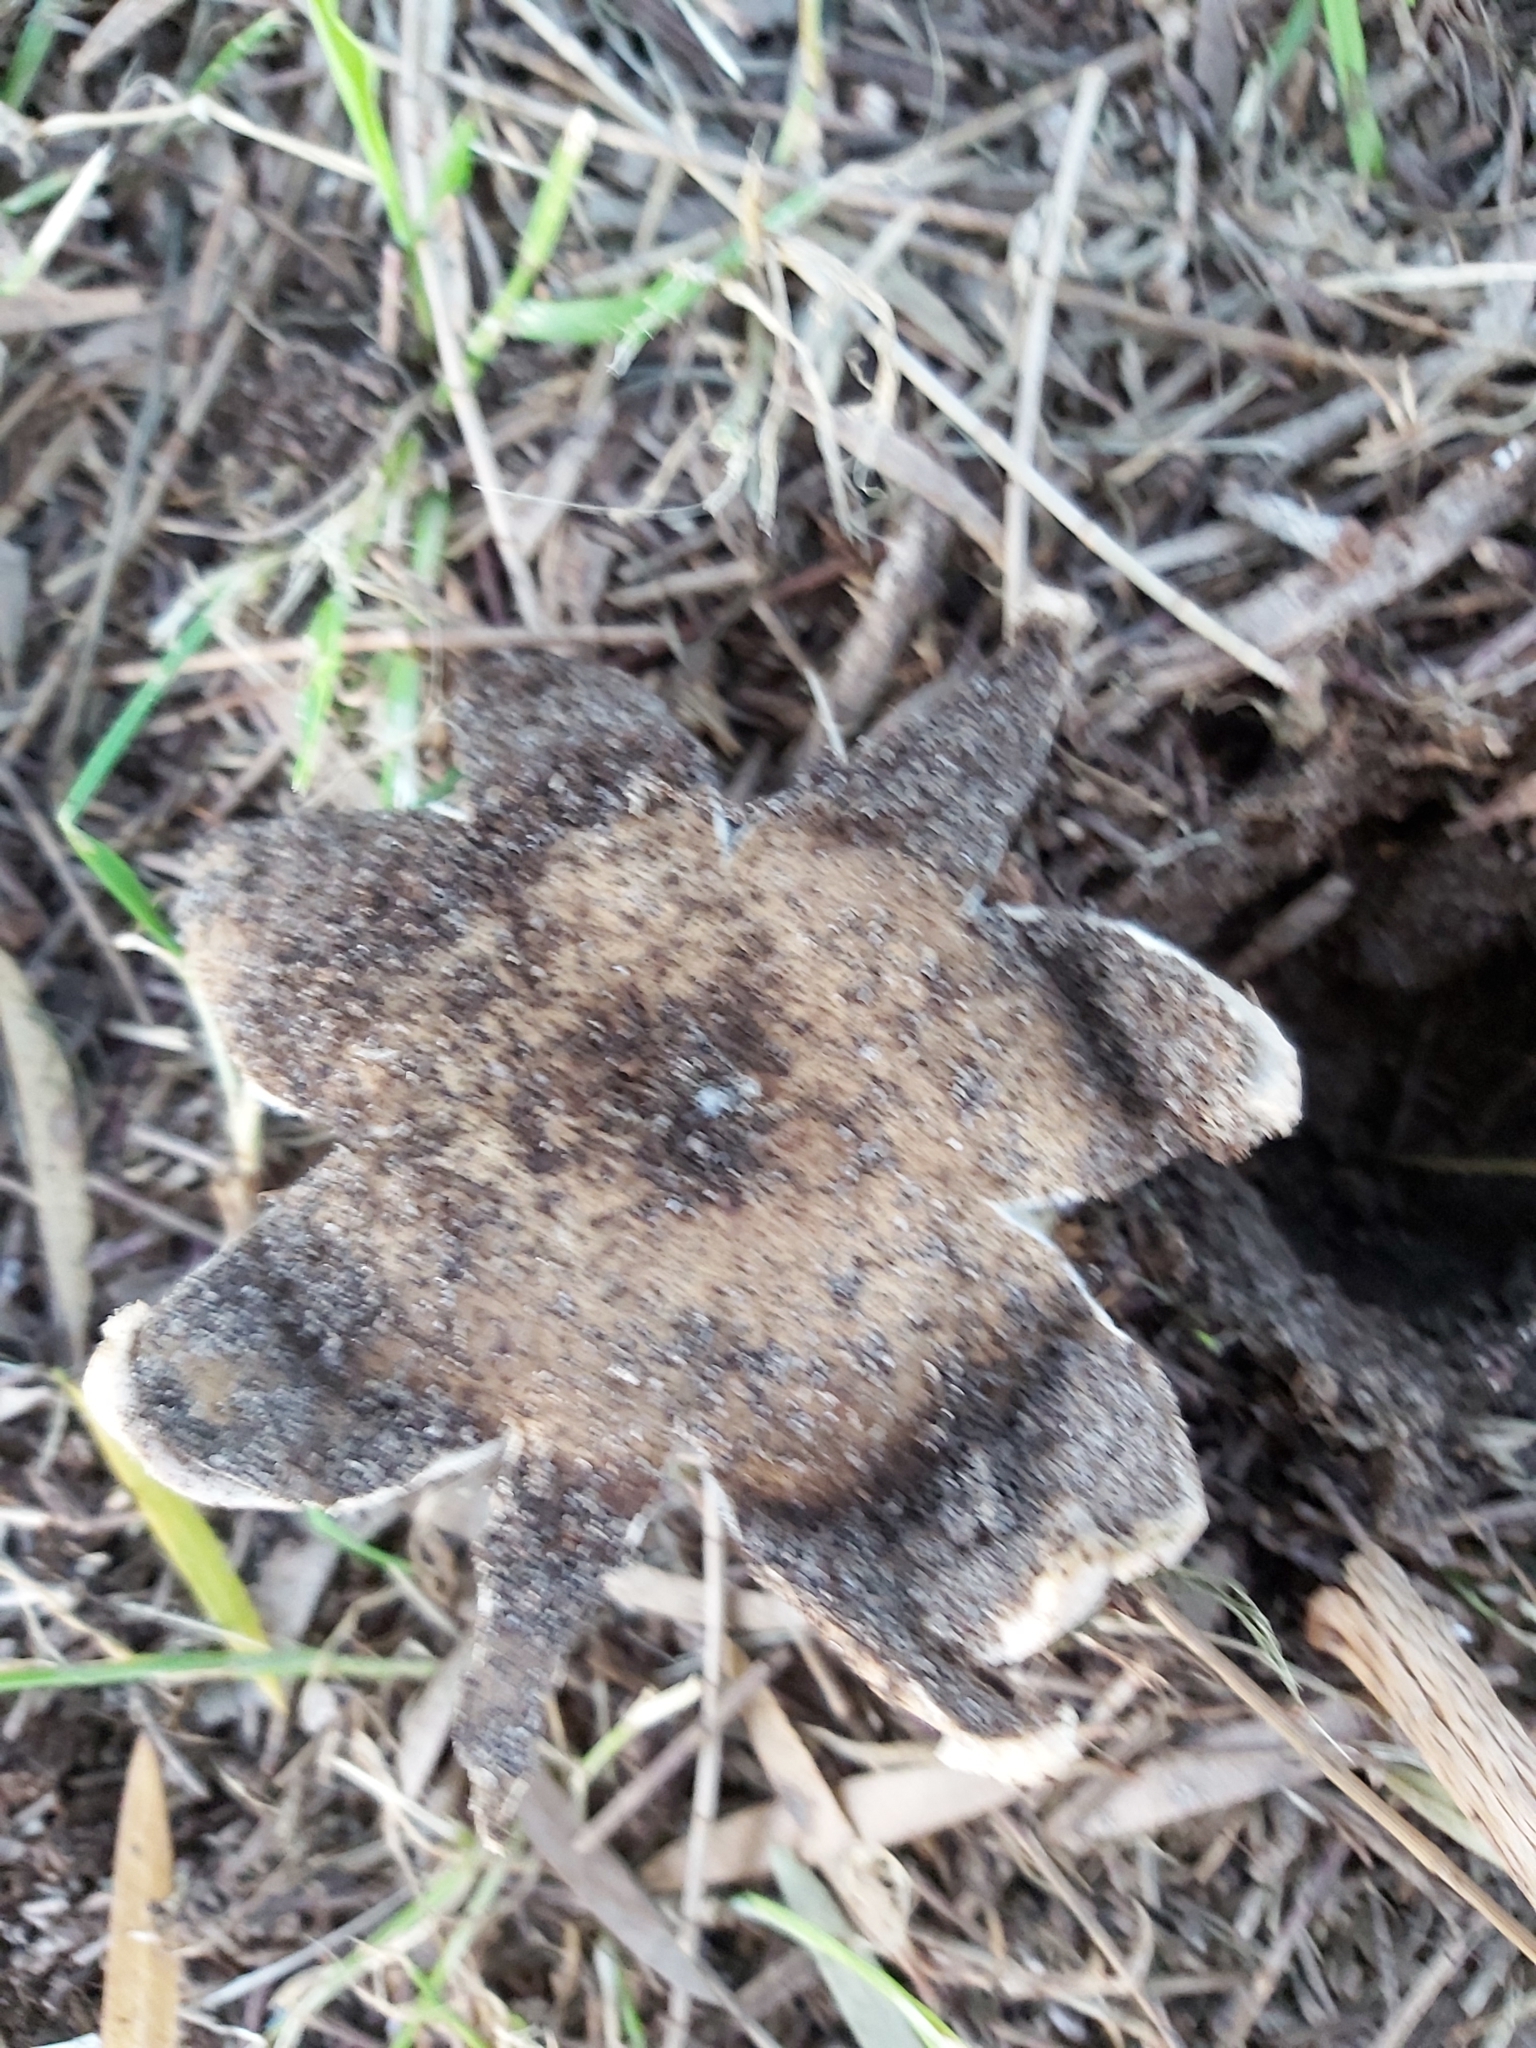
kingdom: Fungi
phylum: Basidiomycota
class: Agaricomycetes
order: Geastrales
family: Geastraceae
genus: Myriostoma
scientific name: Myriostoma australianum
